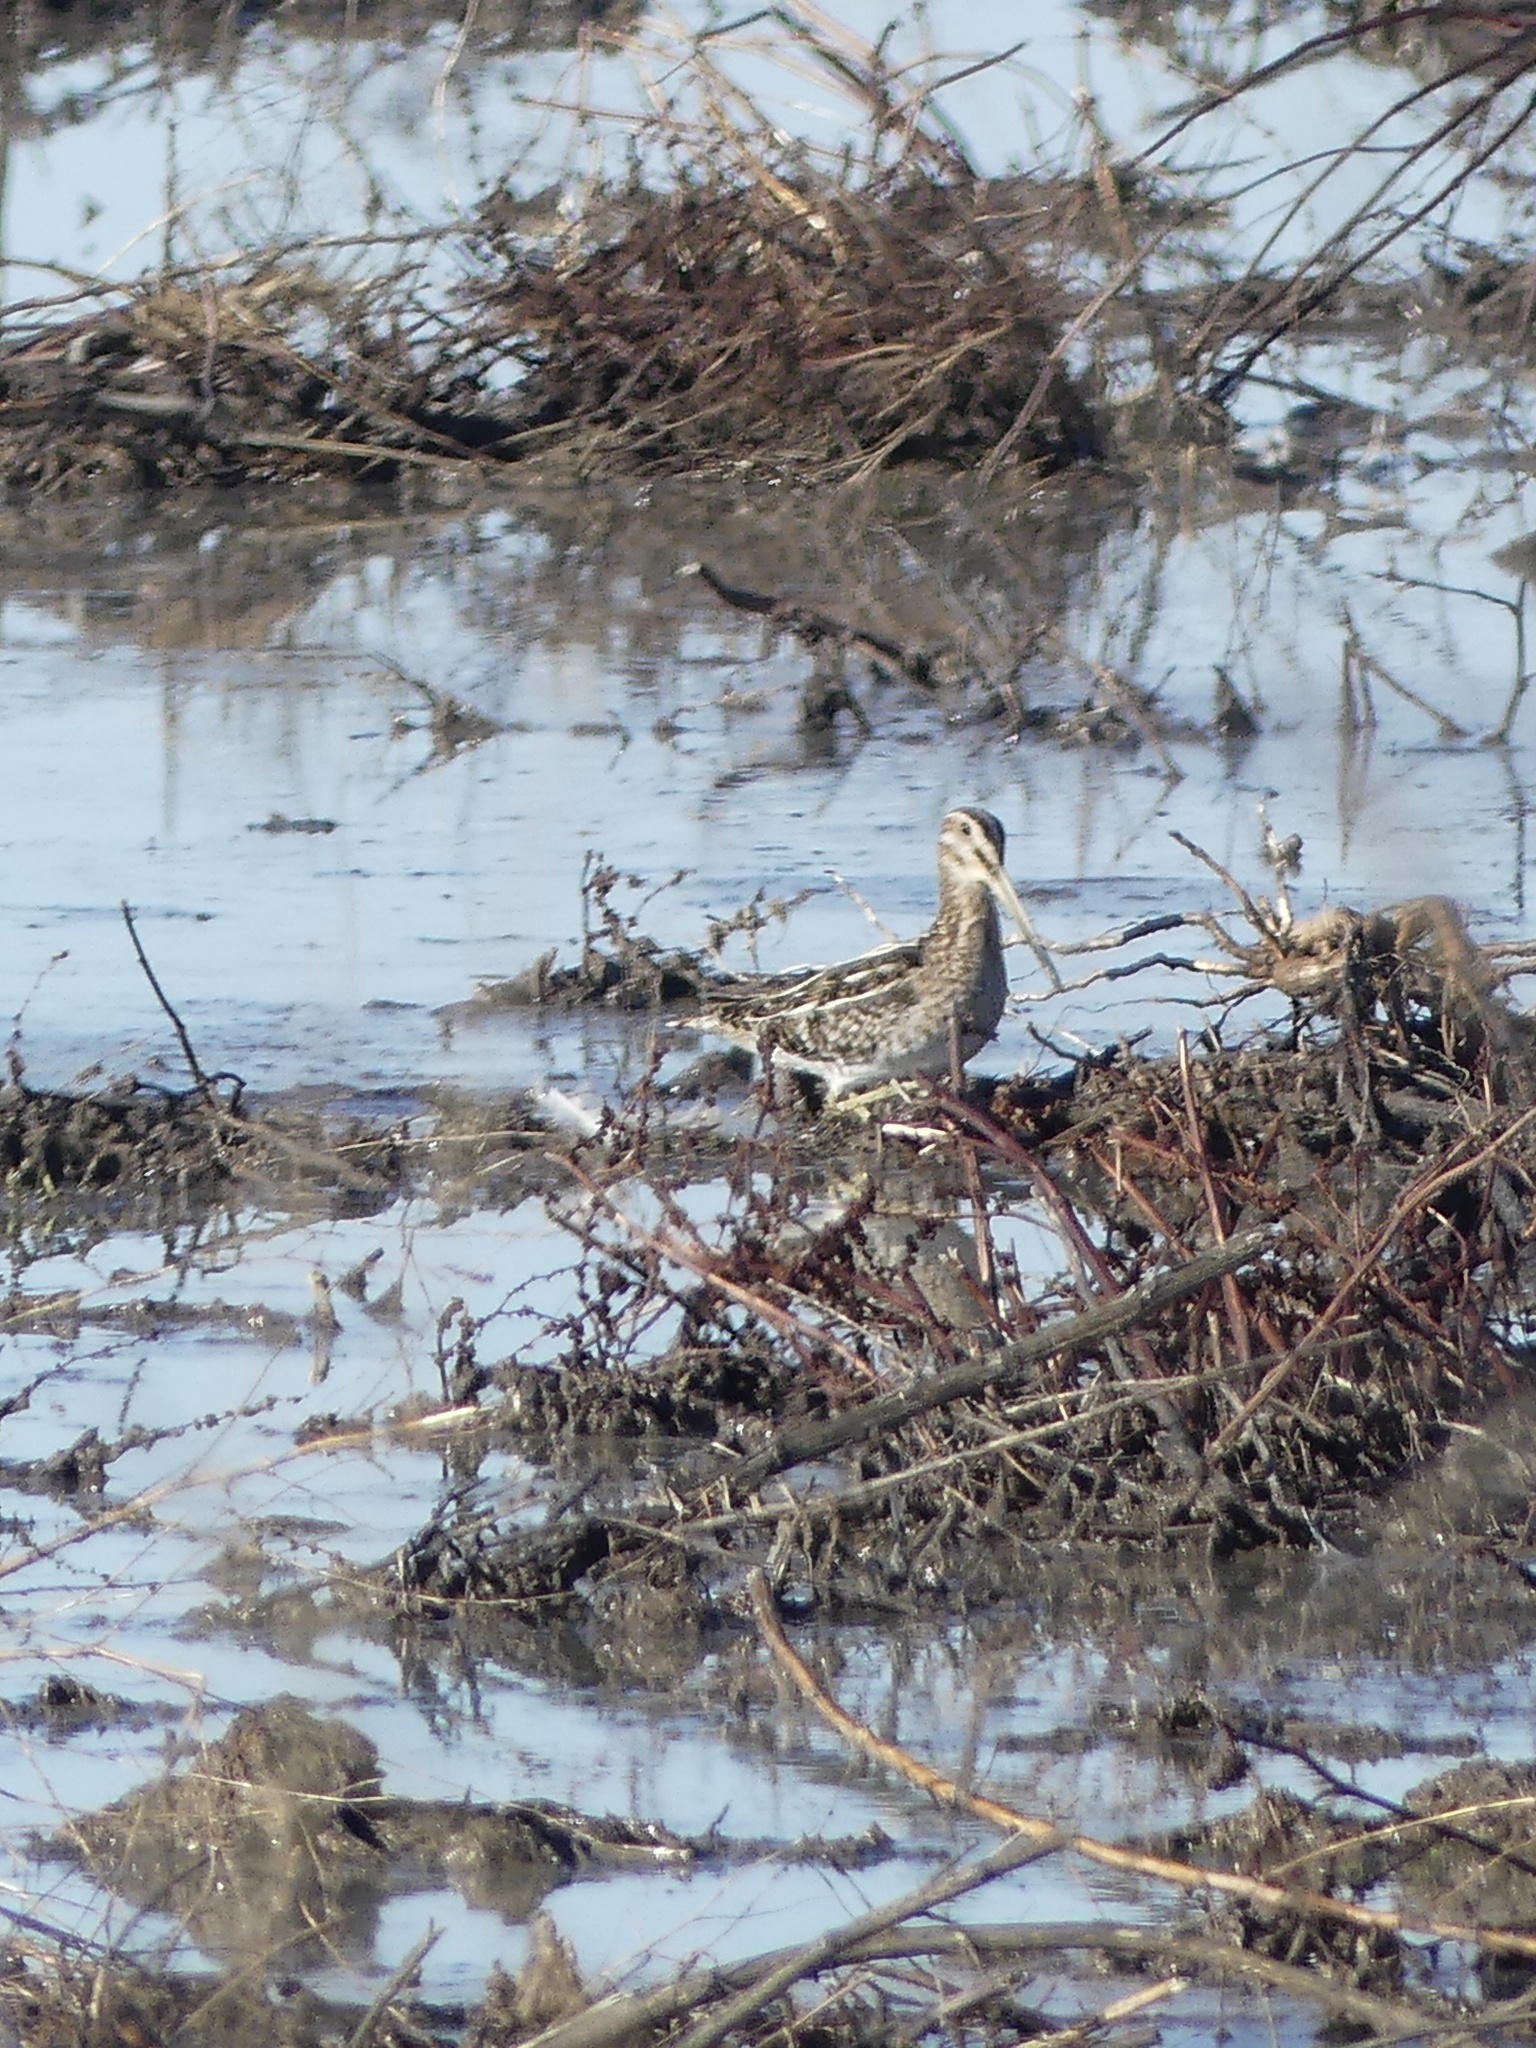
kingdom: Animalia
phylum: Chordata
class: Aves
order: Charadriiformes
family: Scolopacidae
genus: Gallinago
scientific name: Gallinago delicata
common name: Wilson's snipe
